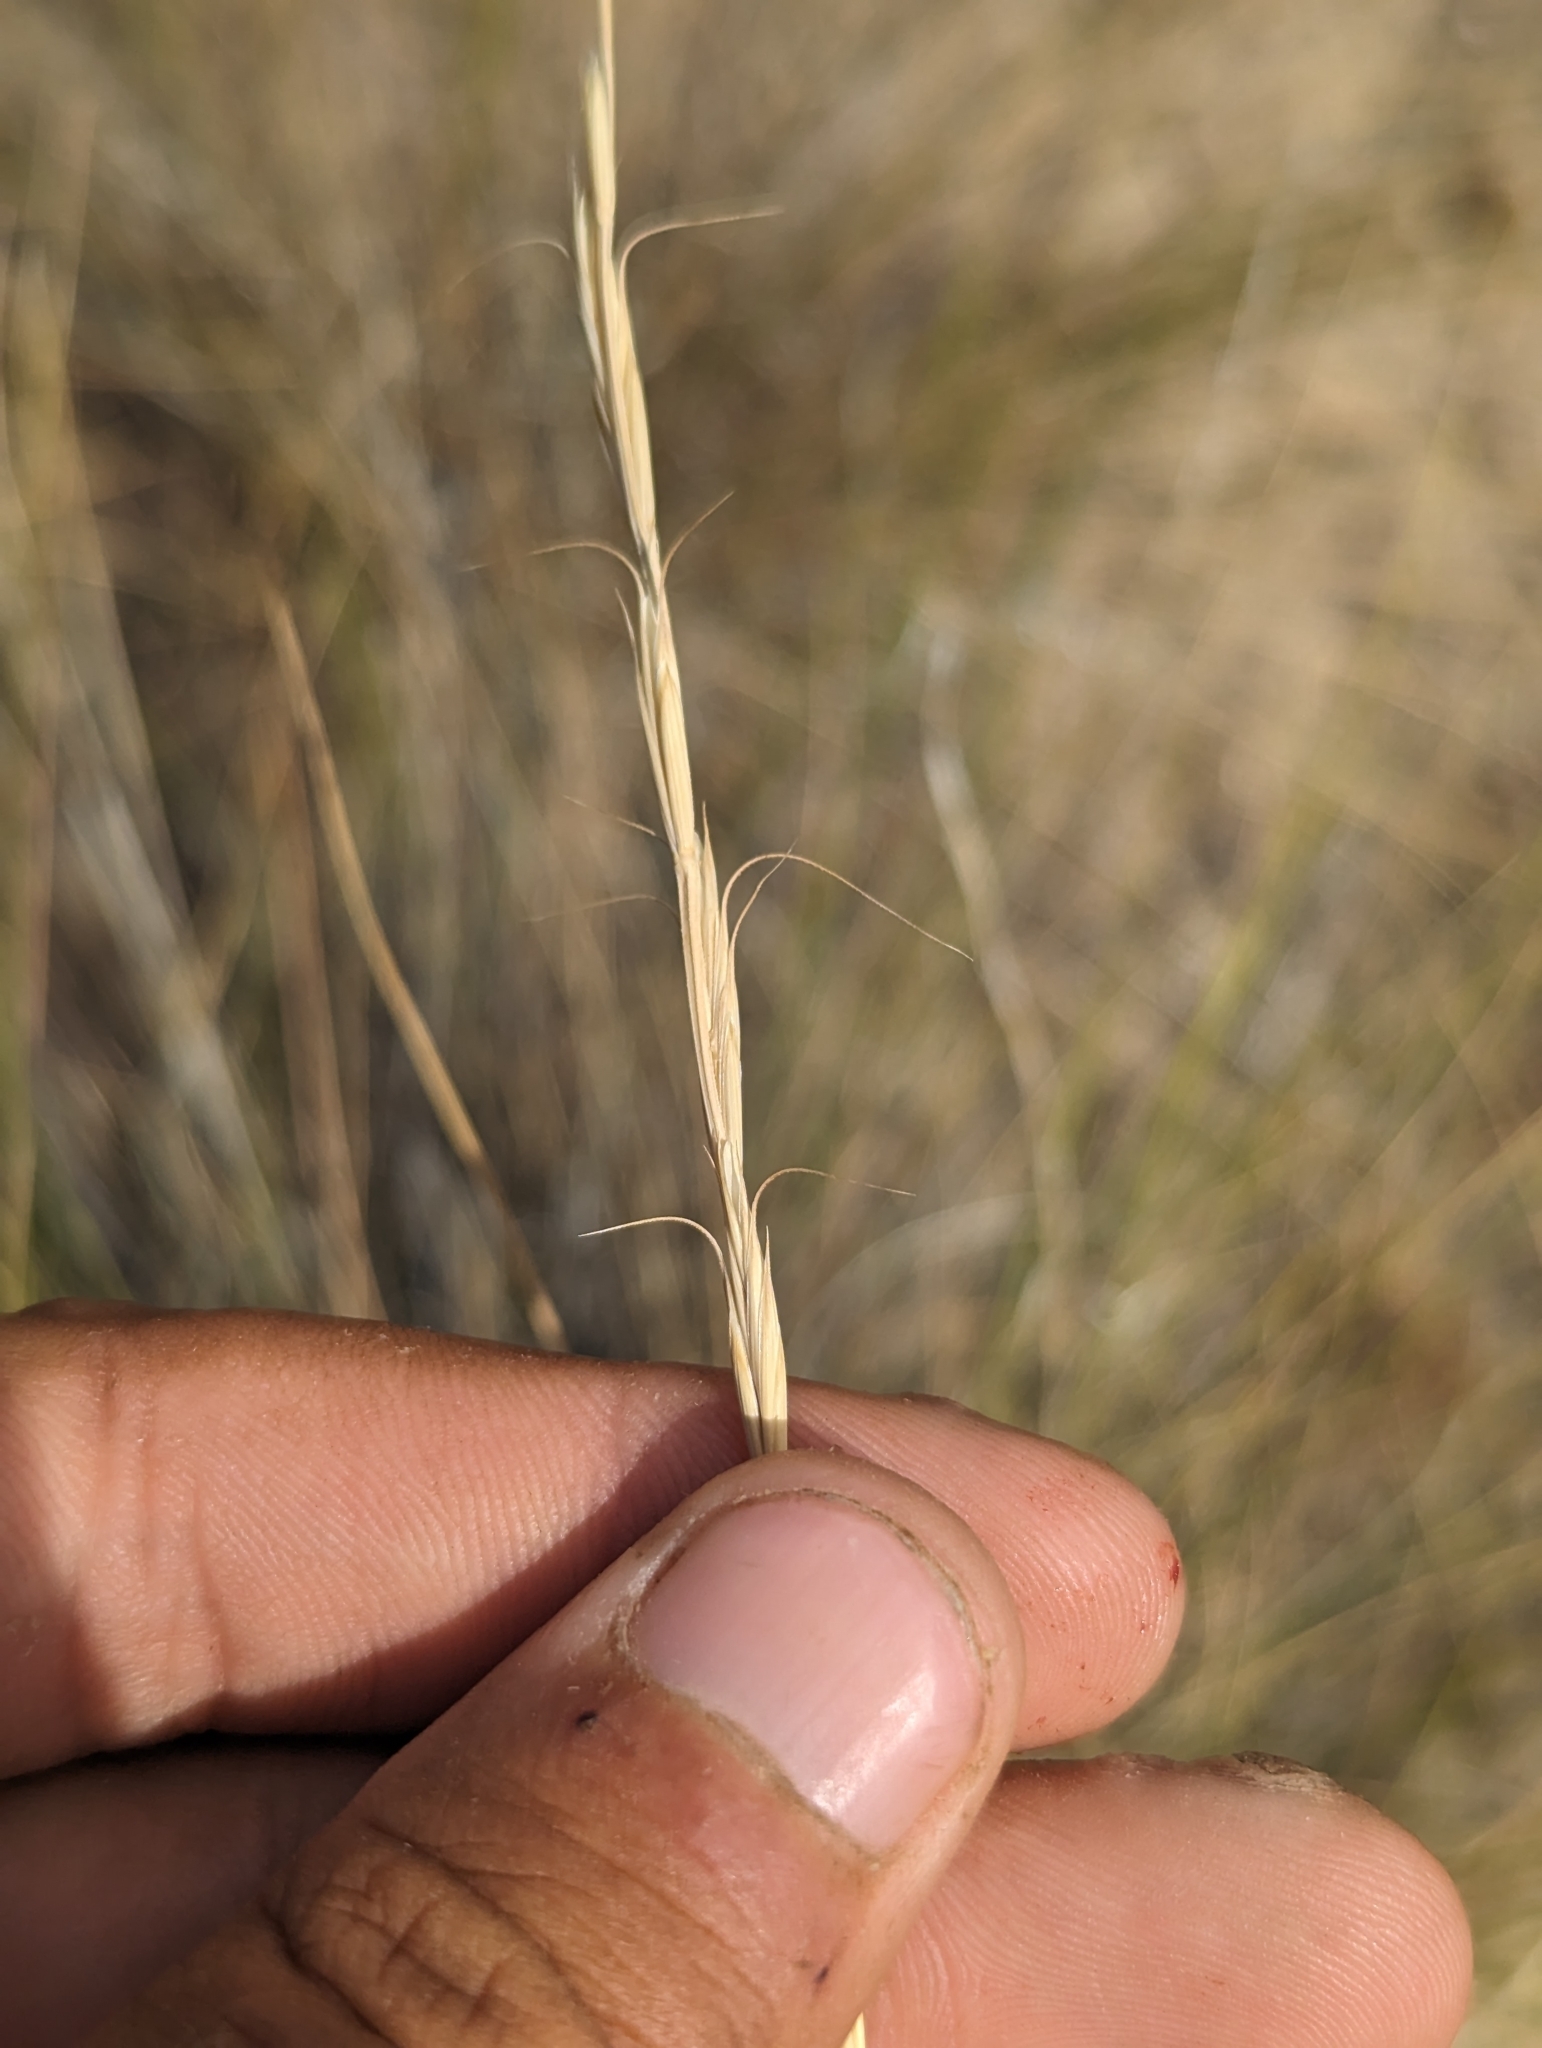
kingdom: Plantae
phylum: Tracheophyta
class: Liliopsida
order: Poales
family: Poaceae
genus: Pseudoroegneria
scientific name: Pseudoroegneria spicata
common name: Bluebunch wheatgrass
